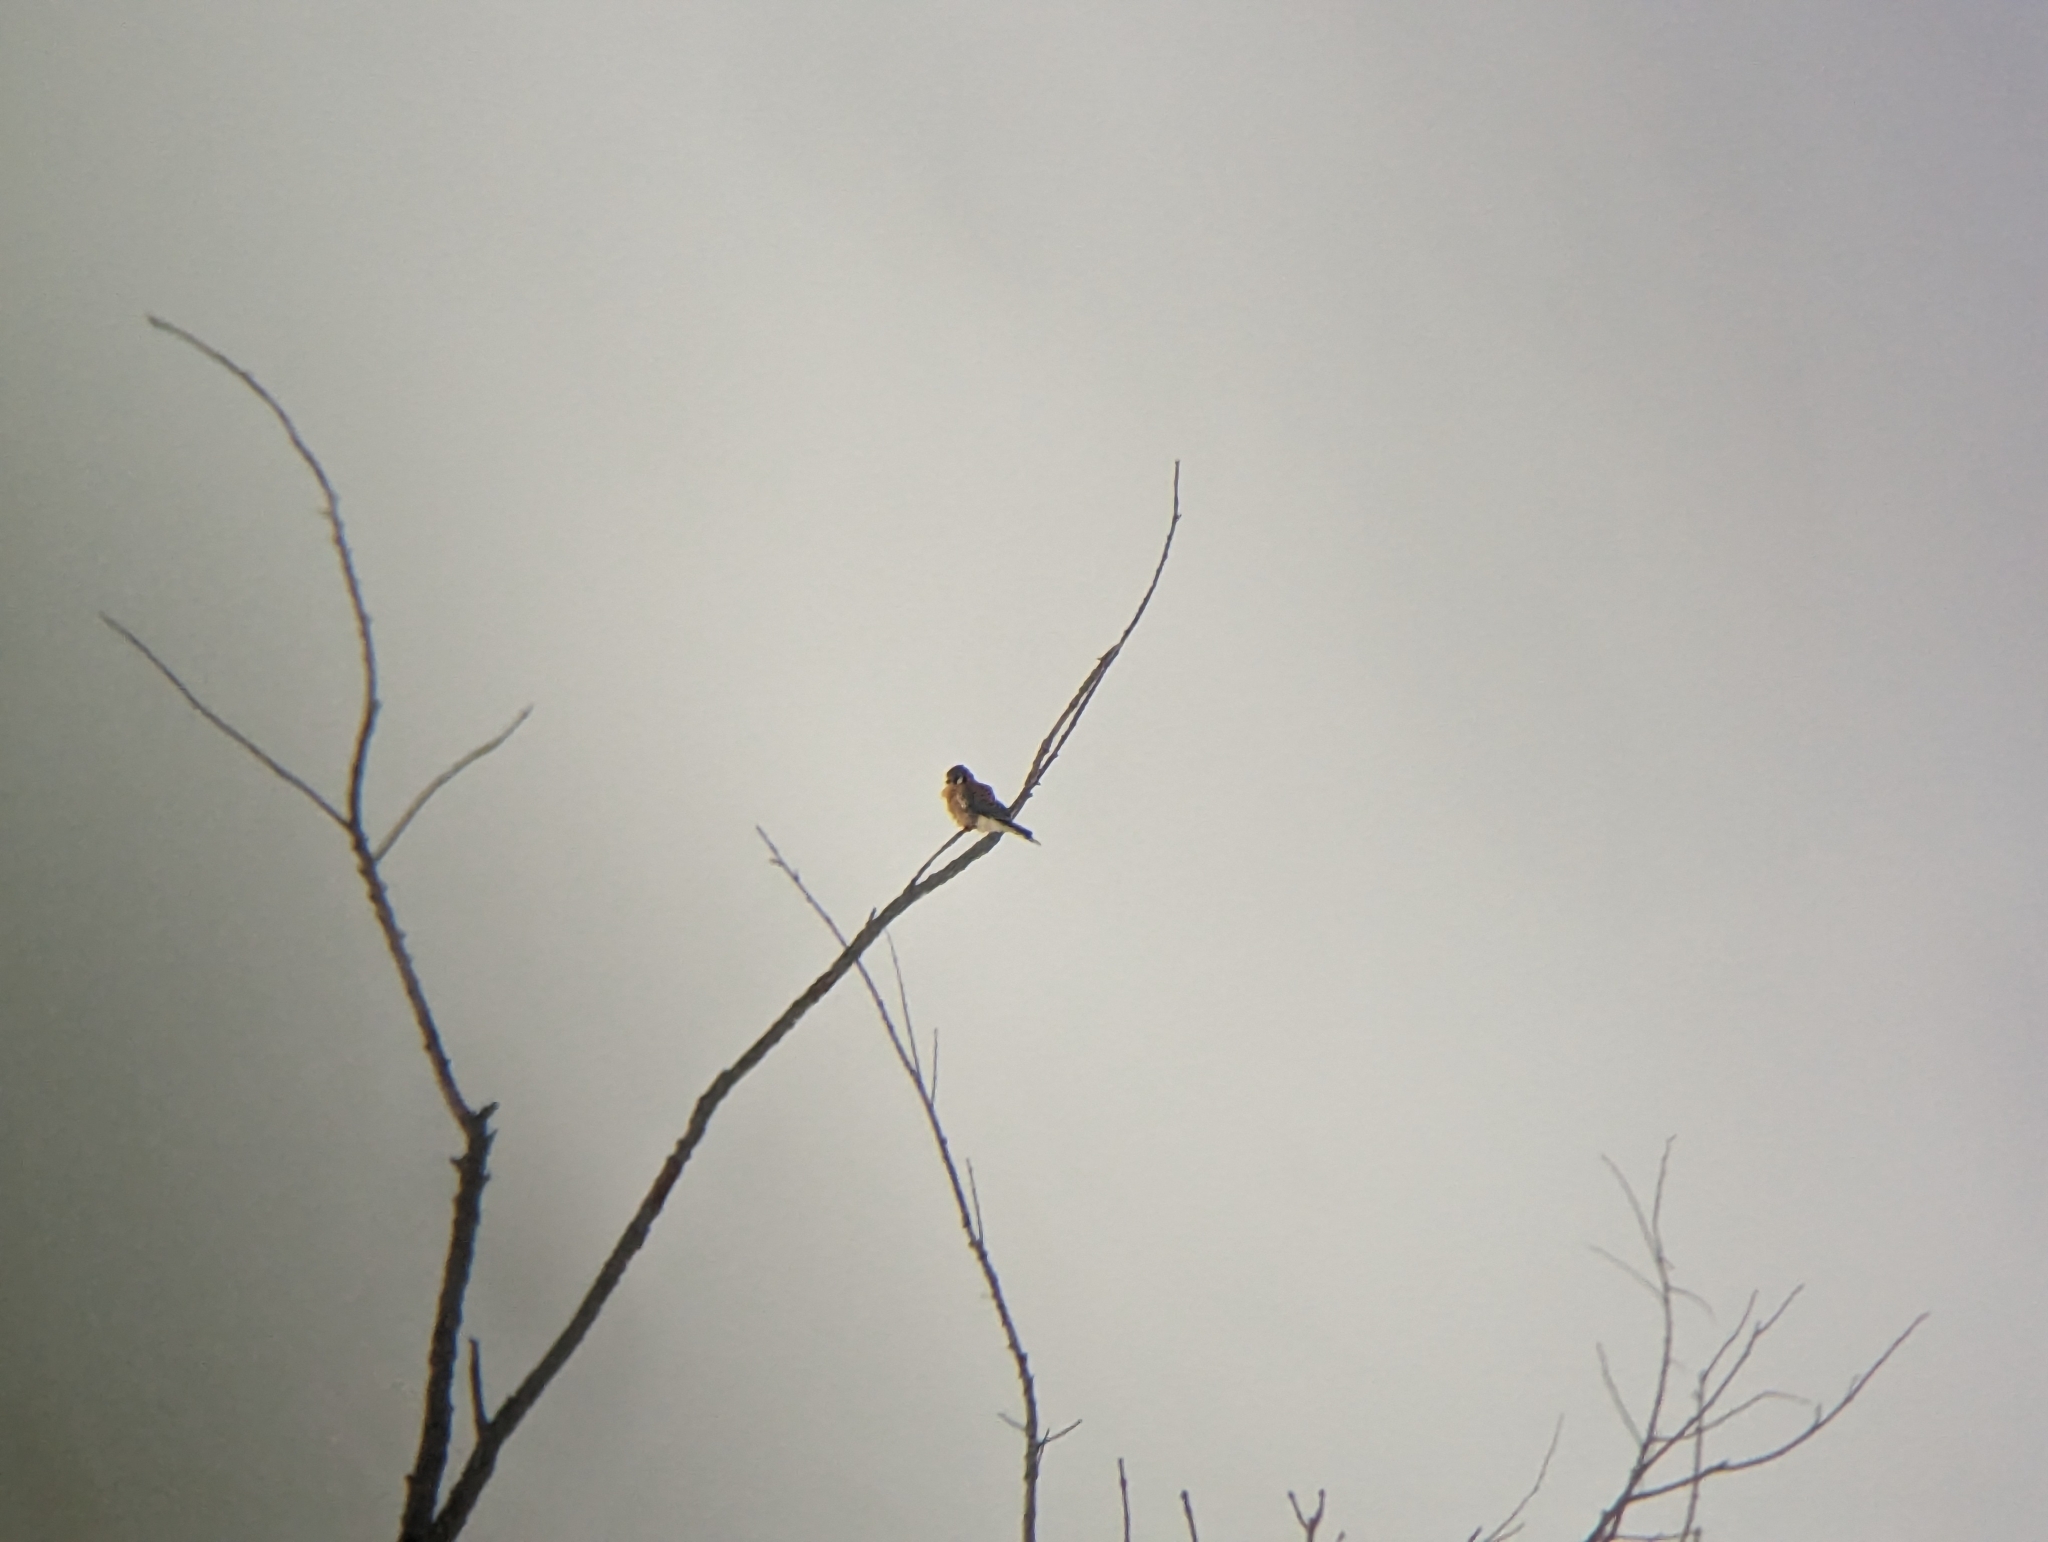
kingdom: Animalia
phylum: Chordata
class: Aves
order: Falconiformes
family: Falconidae
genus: Falco
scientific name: Falco sparverius
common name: American kestrel
